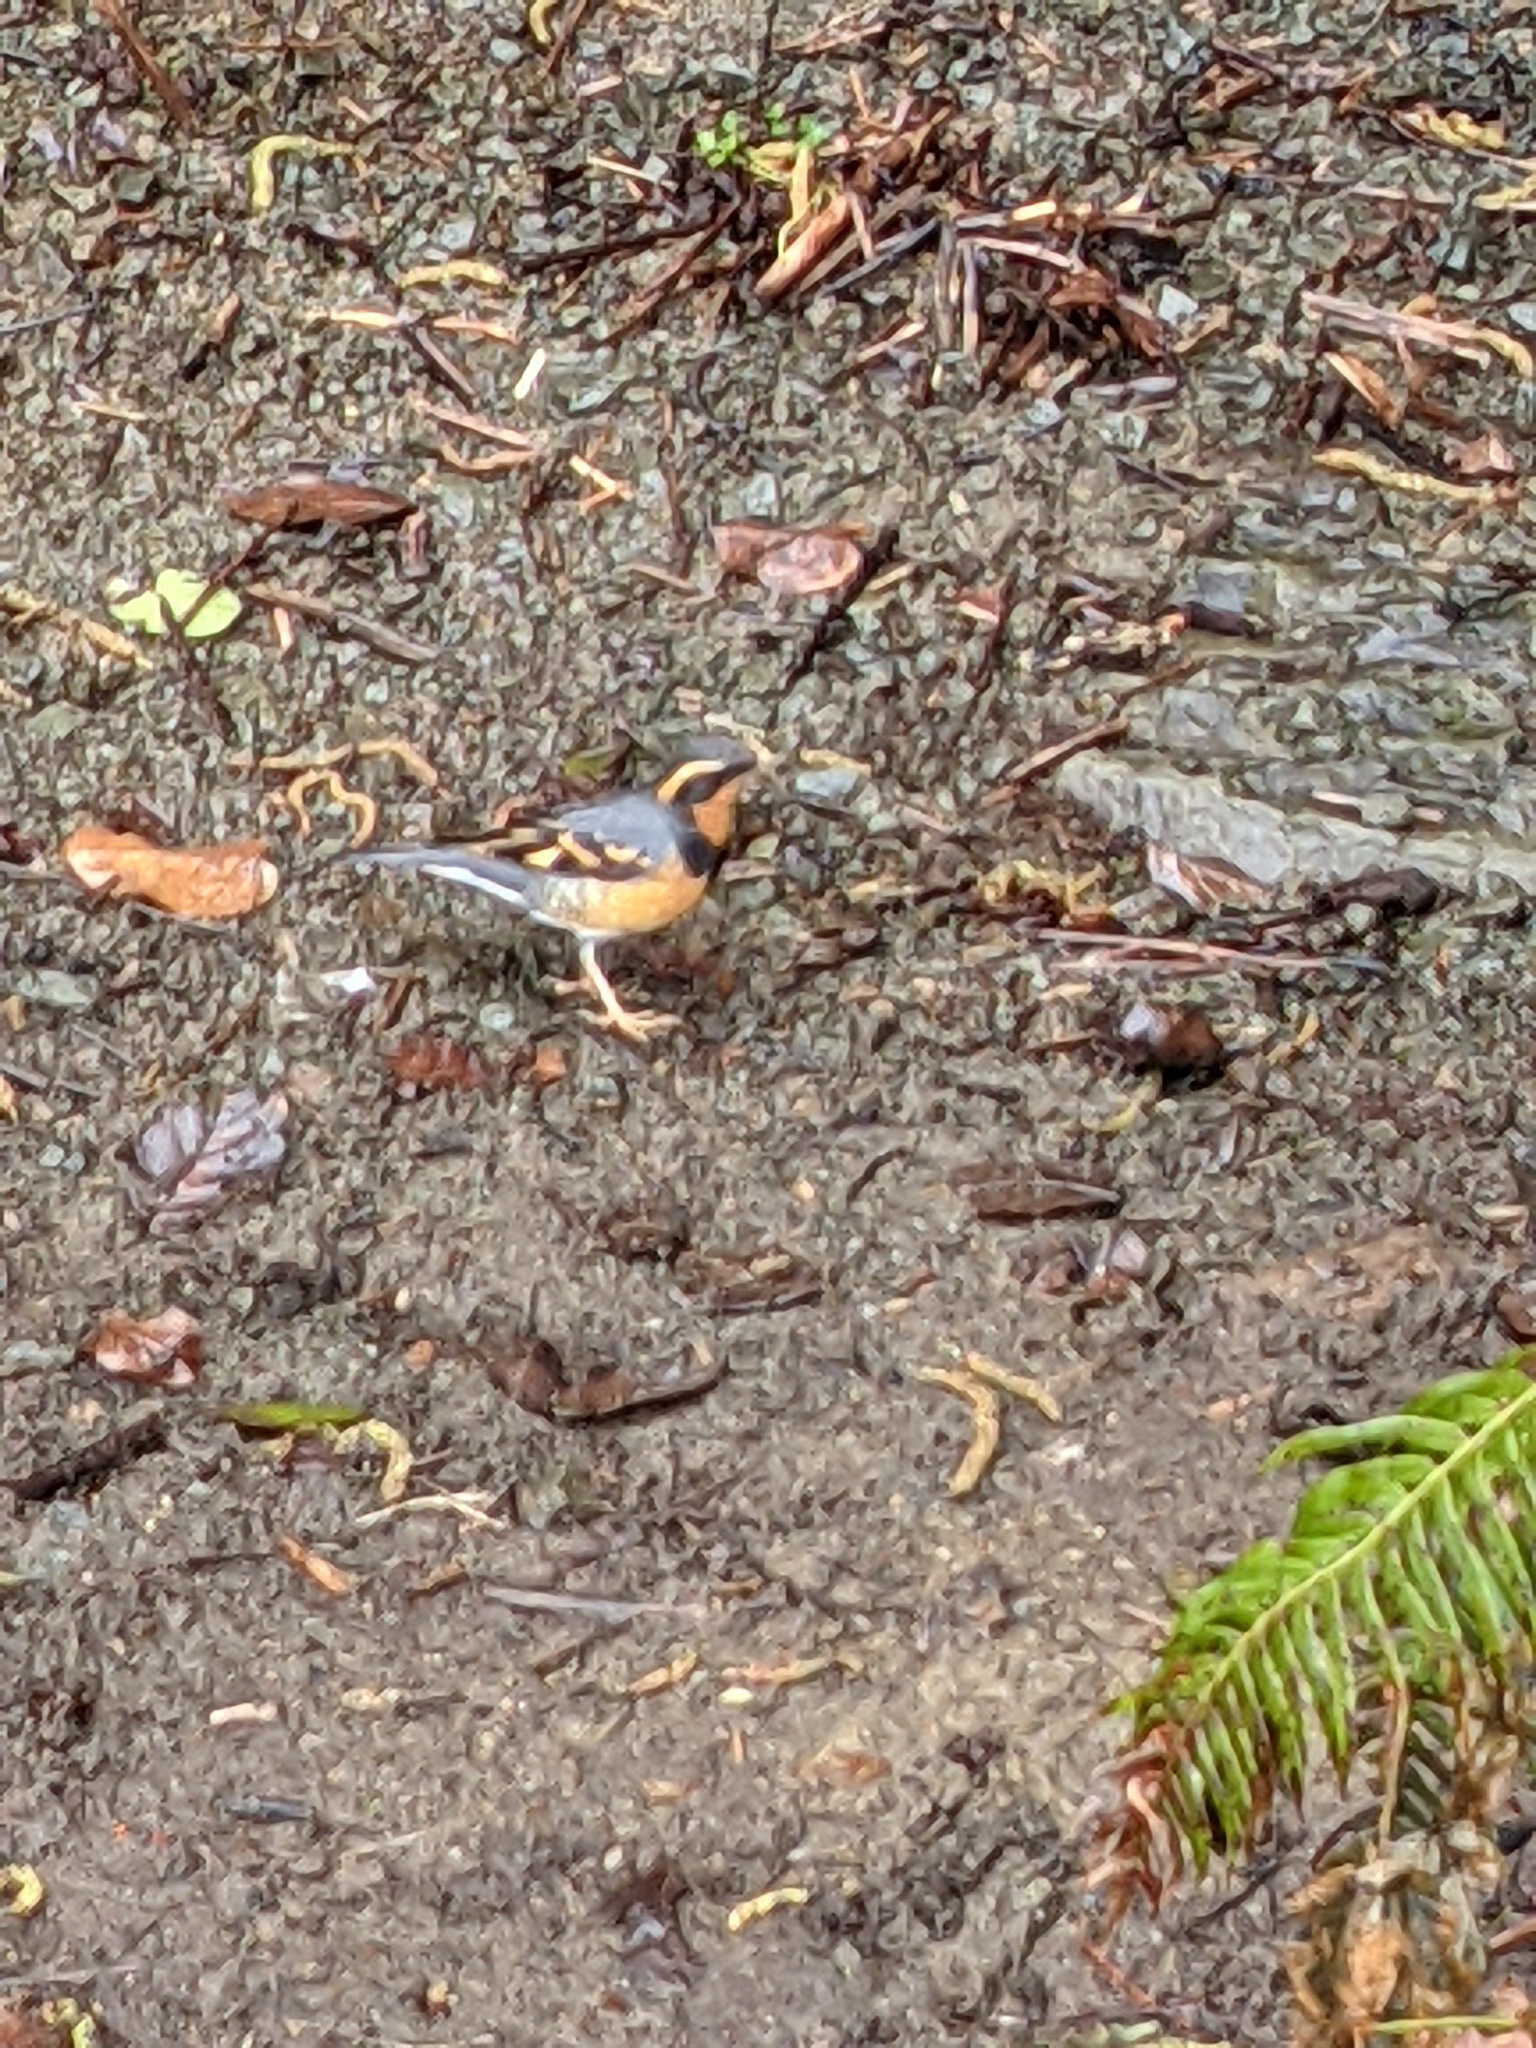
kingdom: Animalia
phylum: Chordata
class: Aves
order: Passeriformes
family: Turdidae
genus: Ixoreus
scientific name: Ixoreus naevius
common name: Varied thrush
